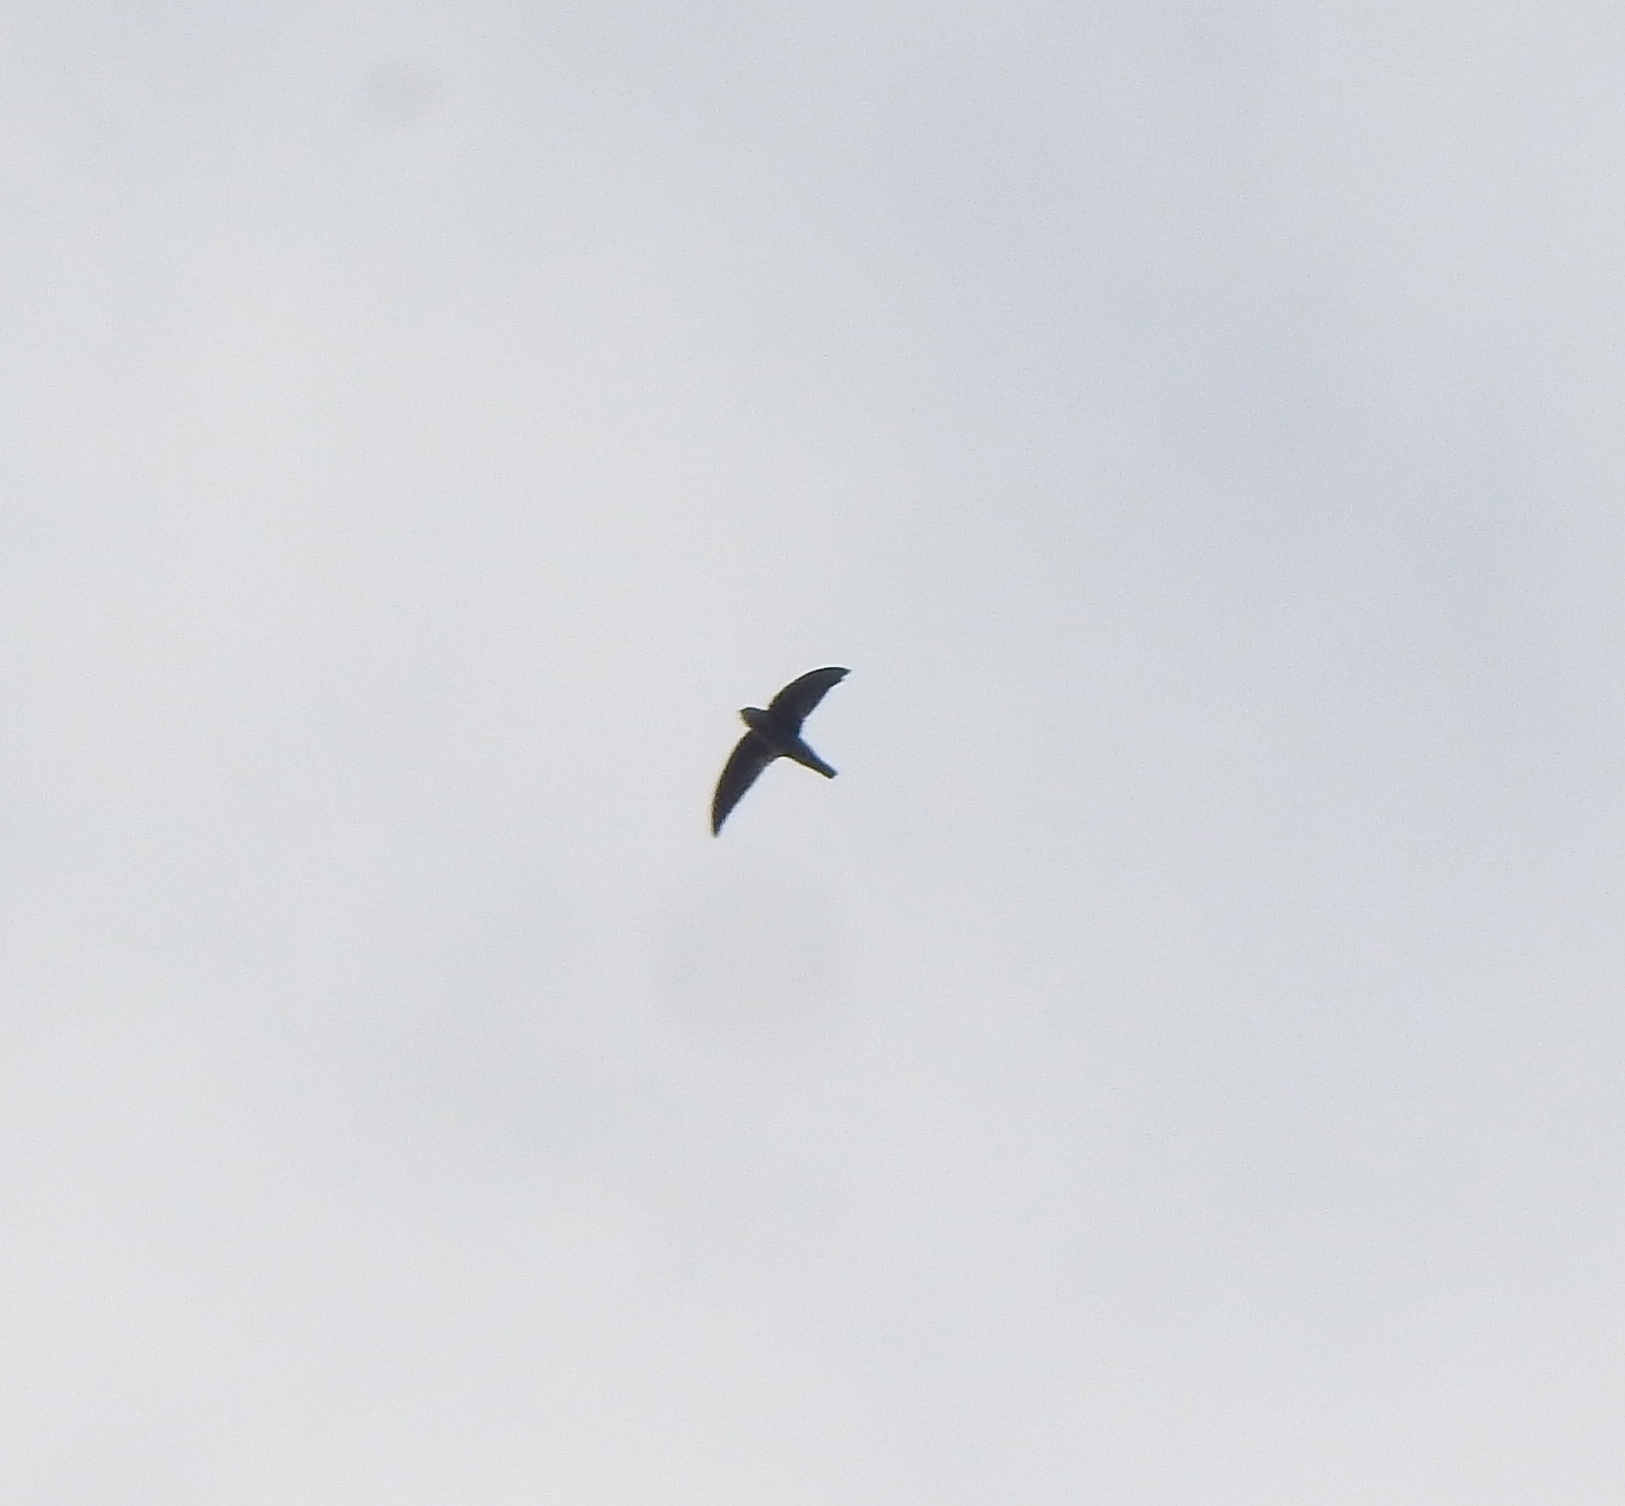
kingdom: Animalia
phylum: Chordata
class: Aves
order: Apodiformes
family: Apodidae
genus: Aerodramus
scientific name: Aerodramus unicolor
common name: Indian swiftlet
